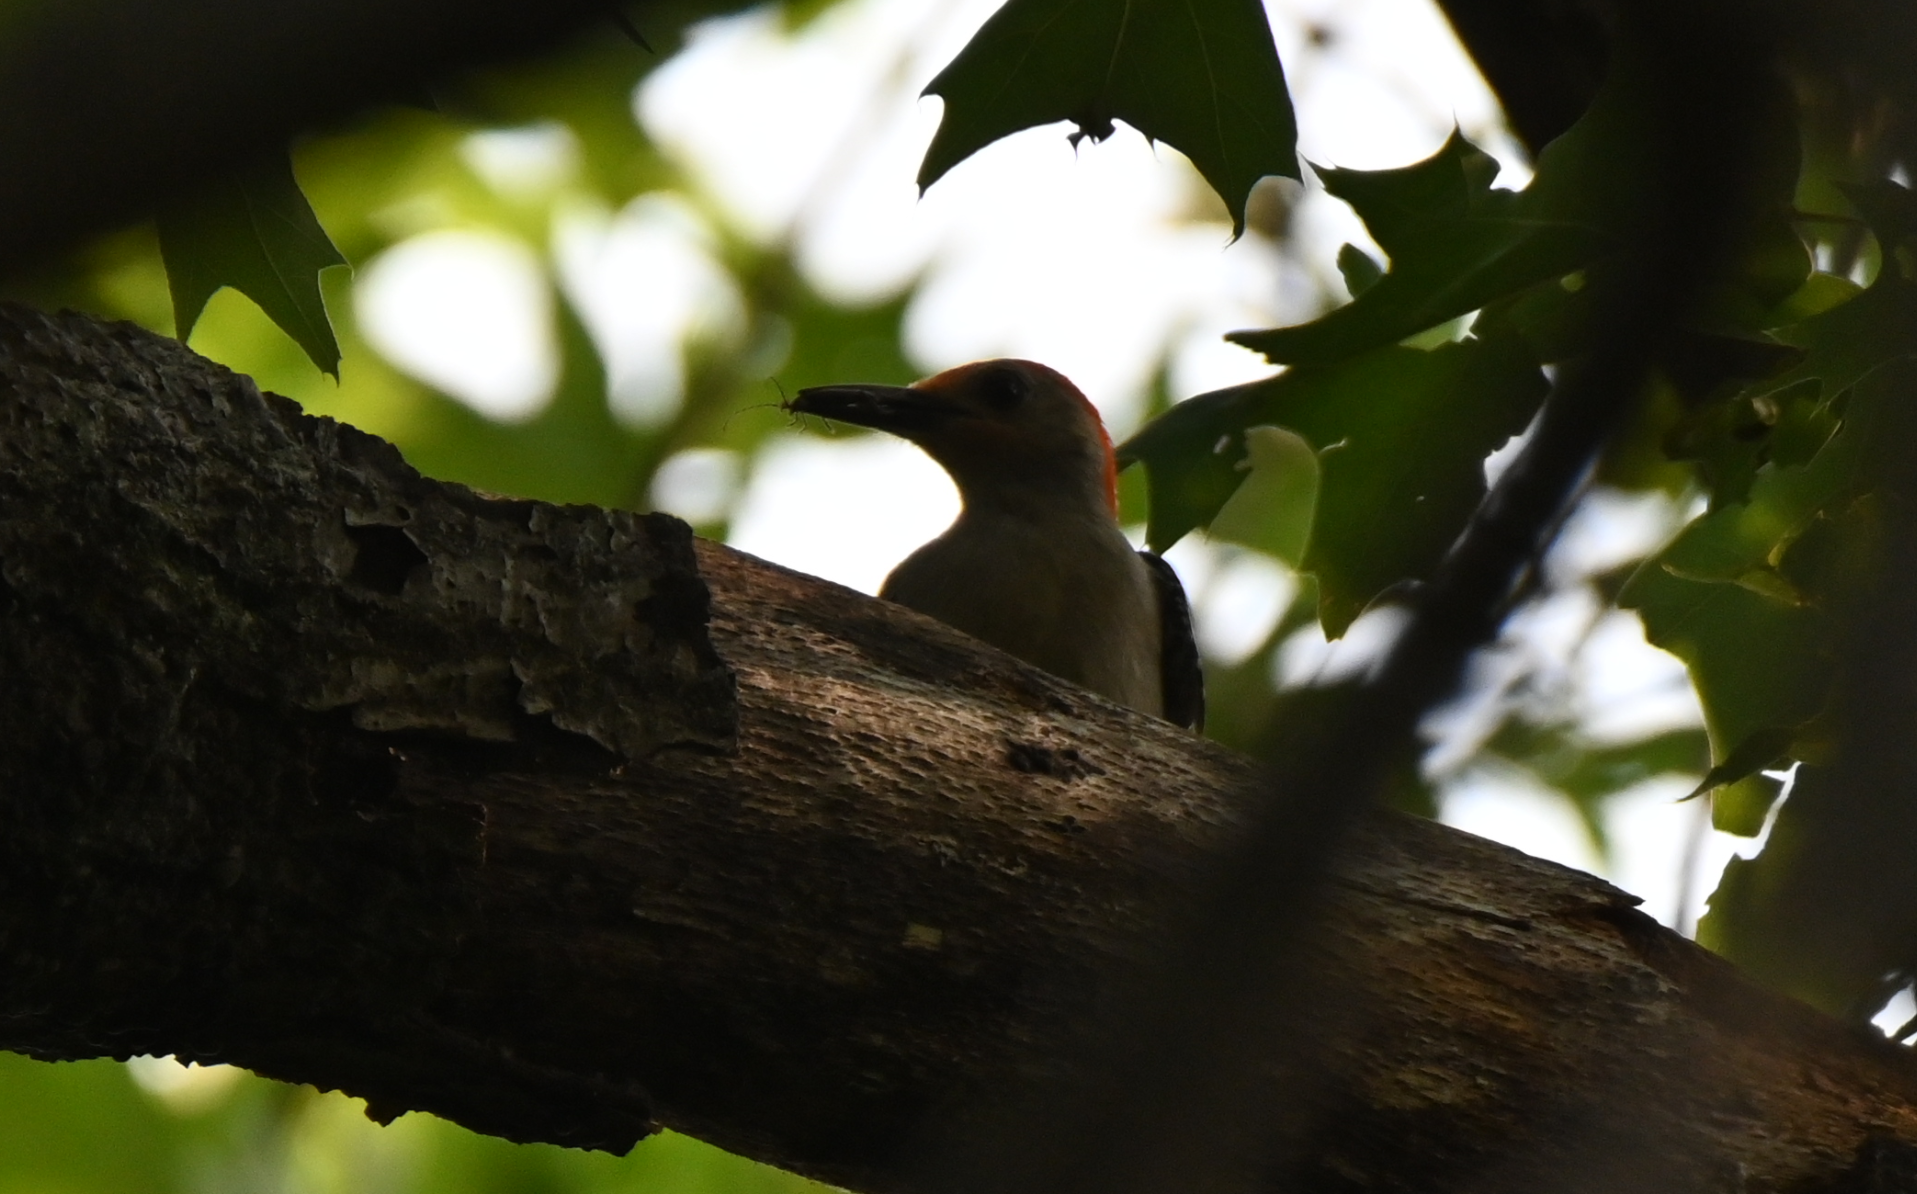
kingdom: Animalia
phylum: Chordata
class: Aves
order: Piciformes
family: Picidae
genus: Melanerpes
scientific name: Melanerpes carolinus
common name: Red-bellied woodpecker
